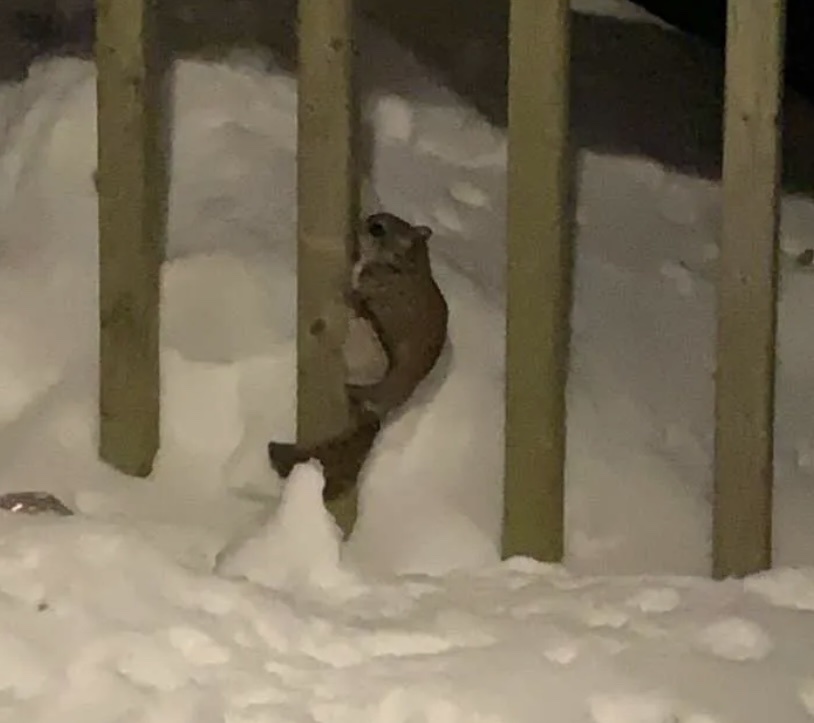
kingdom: Animalia
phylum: Chordata
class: Mammalia
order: Rodentia
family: Sciuridae
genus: Glaucomys
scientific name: Glaucomys sabrinus
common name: Northern flying squirrel
